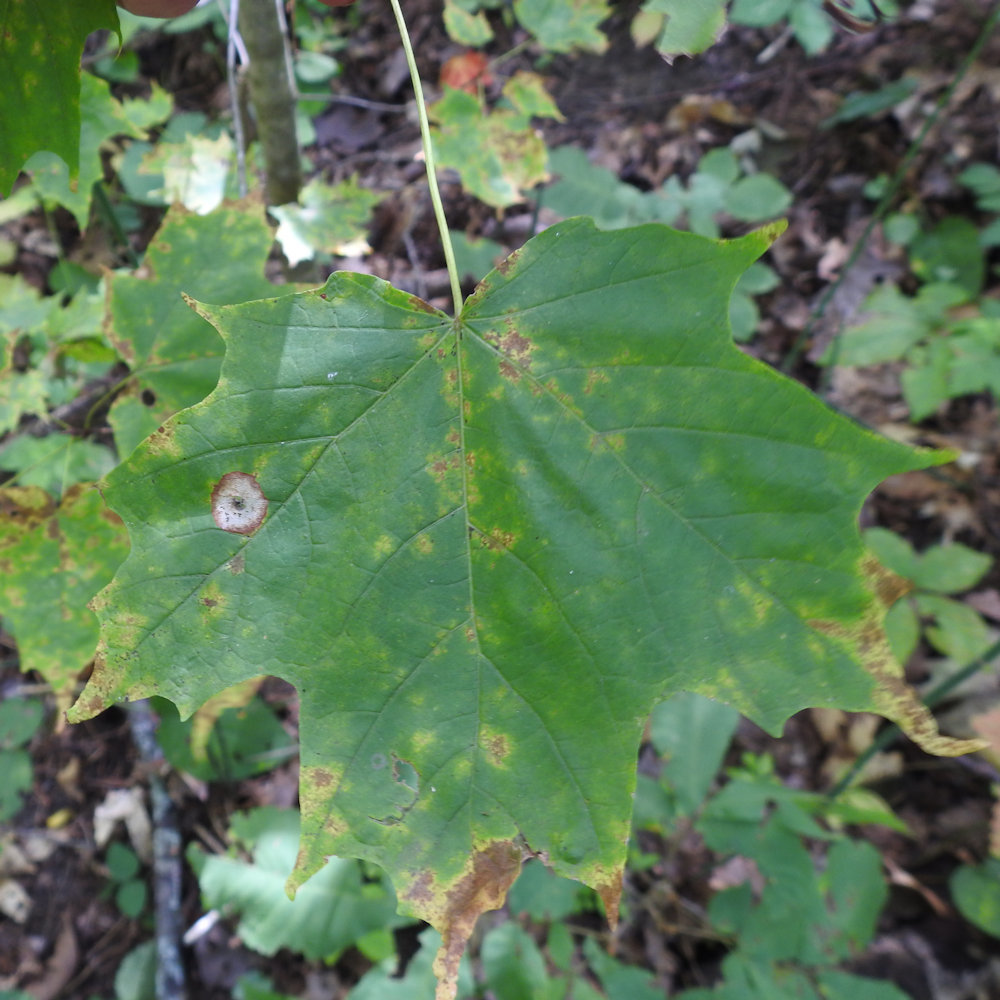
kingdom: Animalia
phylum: Arthropoda
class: Insecta
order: Diptera
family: Cecidomyiidae
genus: Acericecis
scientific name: Acericecis ocellaris
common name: Ocellate gall midge
